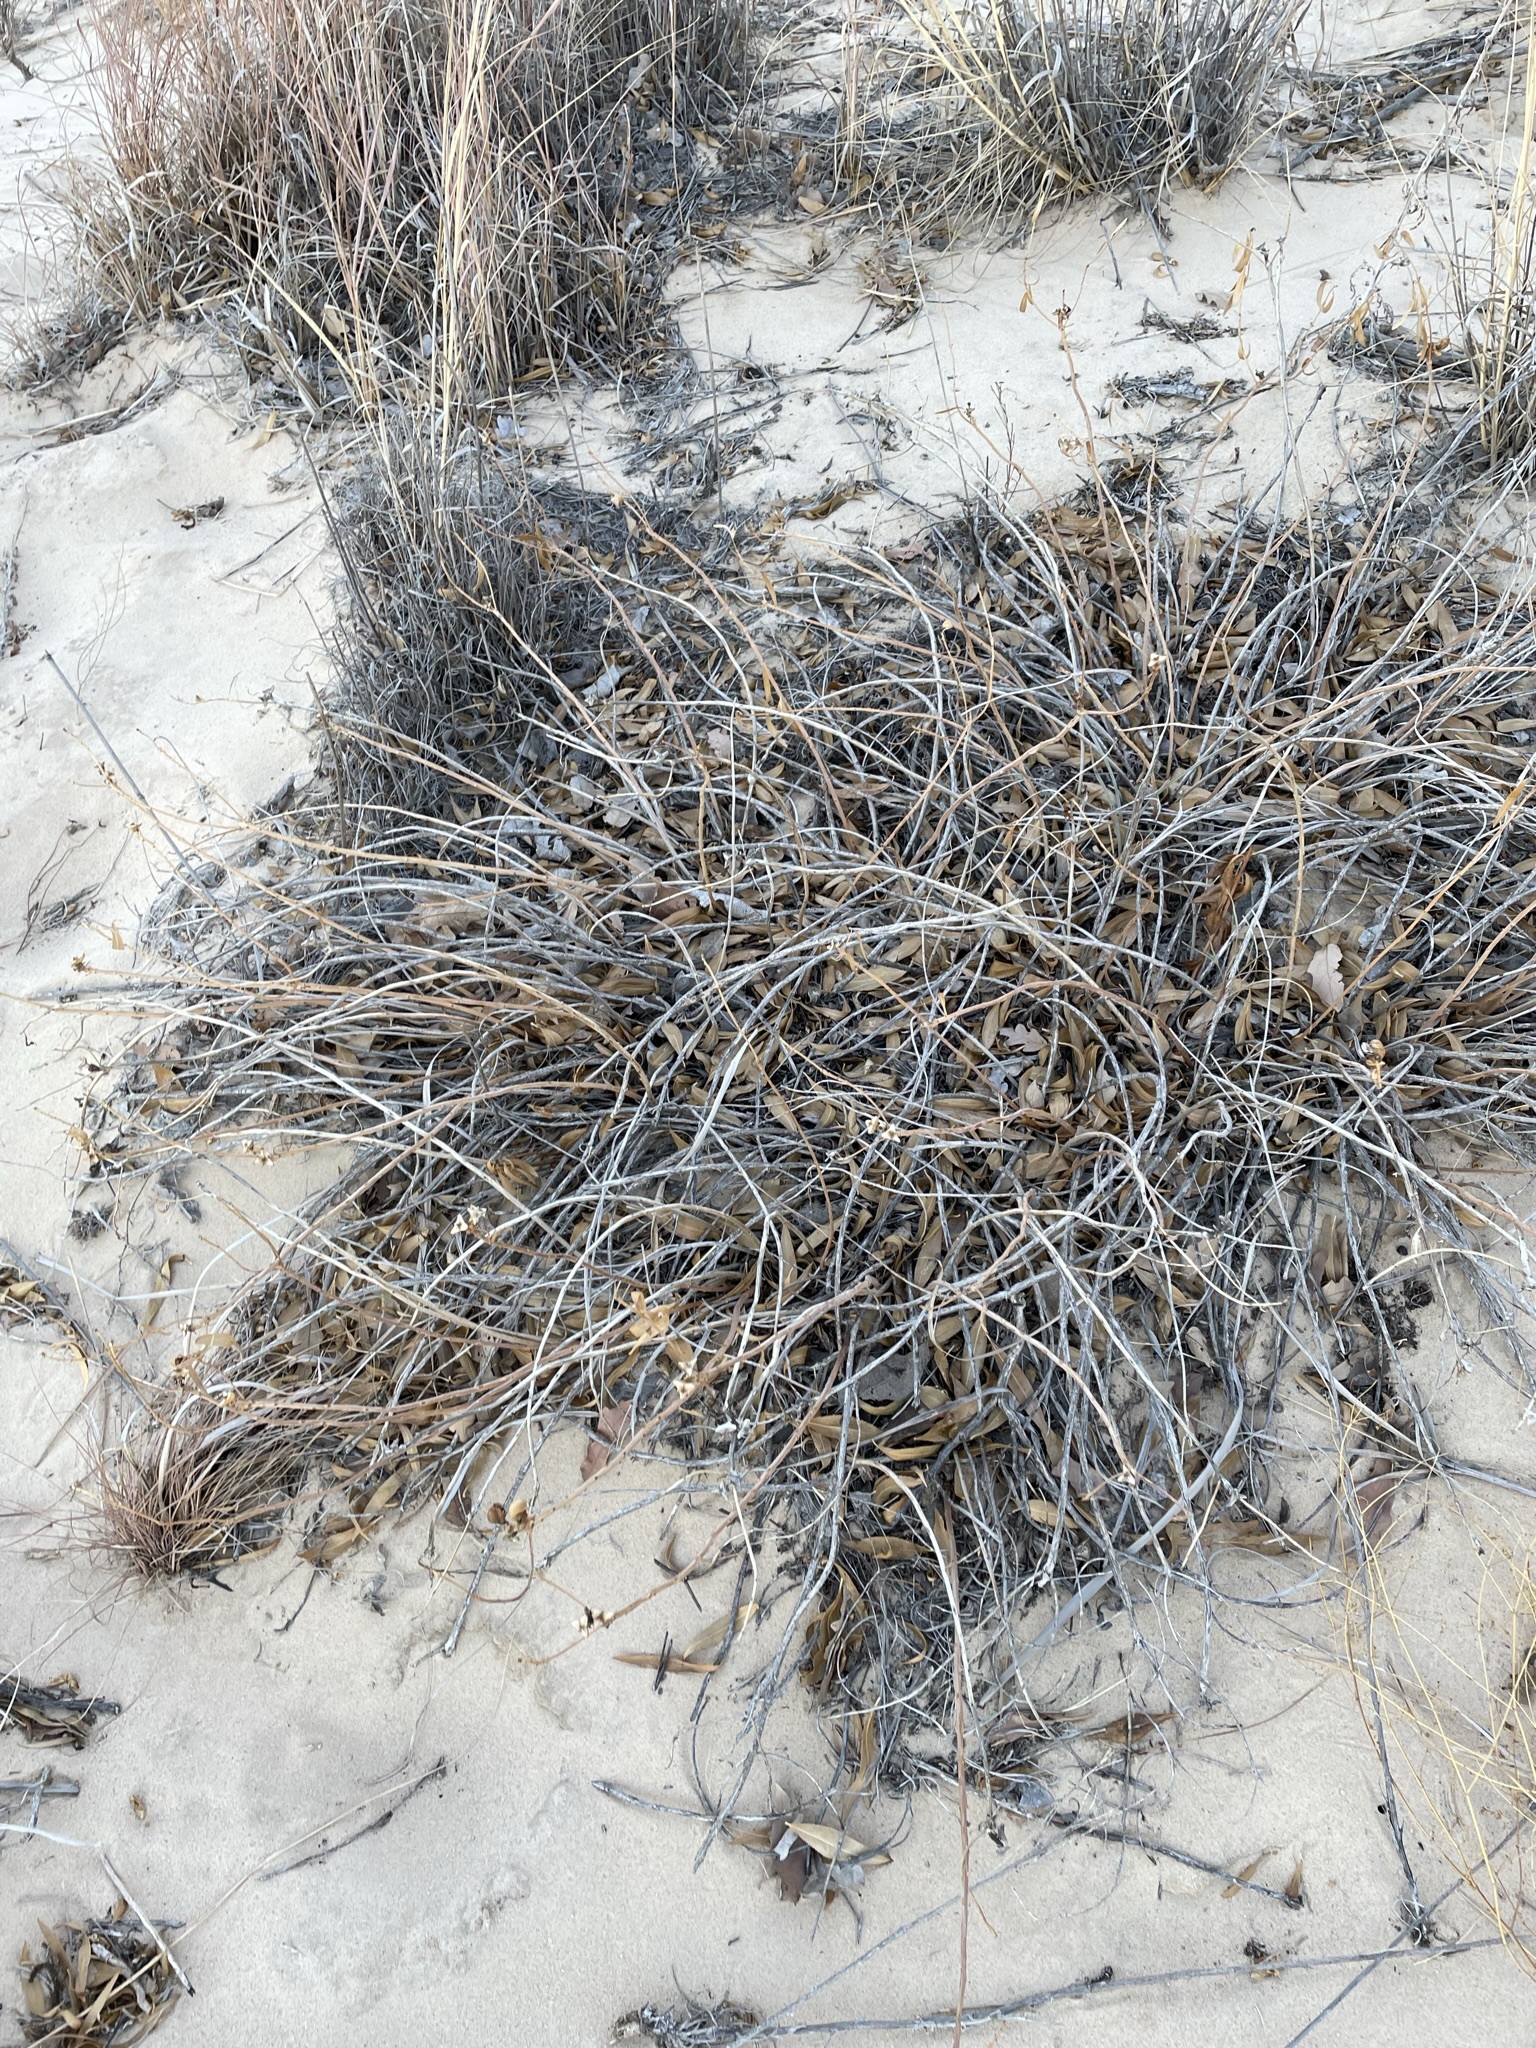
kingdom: Plantae
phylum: Tracheophyta
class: Magnoliopsida
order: Malpighiales
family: Euphorbiaceae
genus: Stillingia
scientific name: Stillingia sylvatica
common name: Queen's-delight
